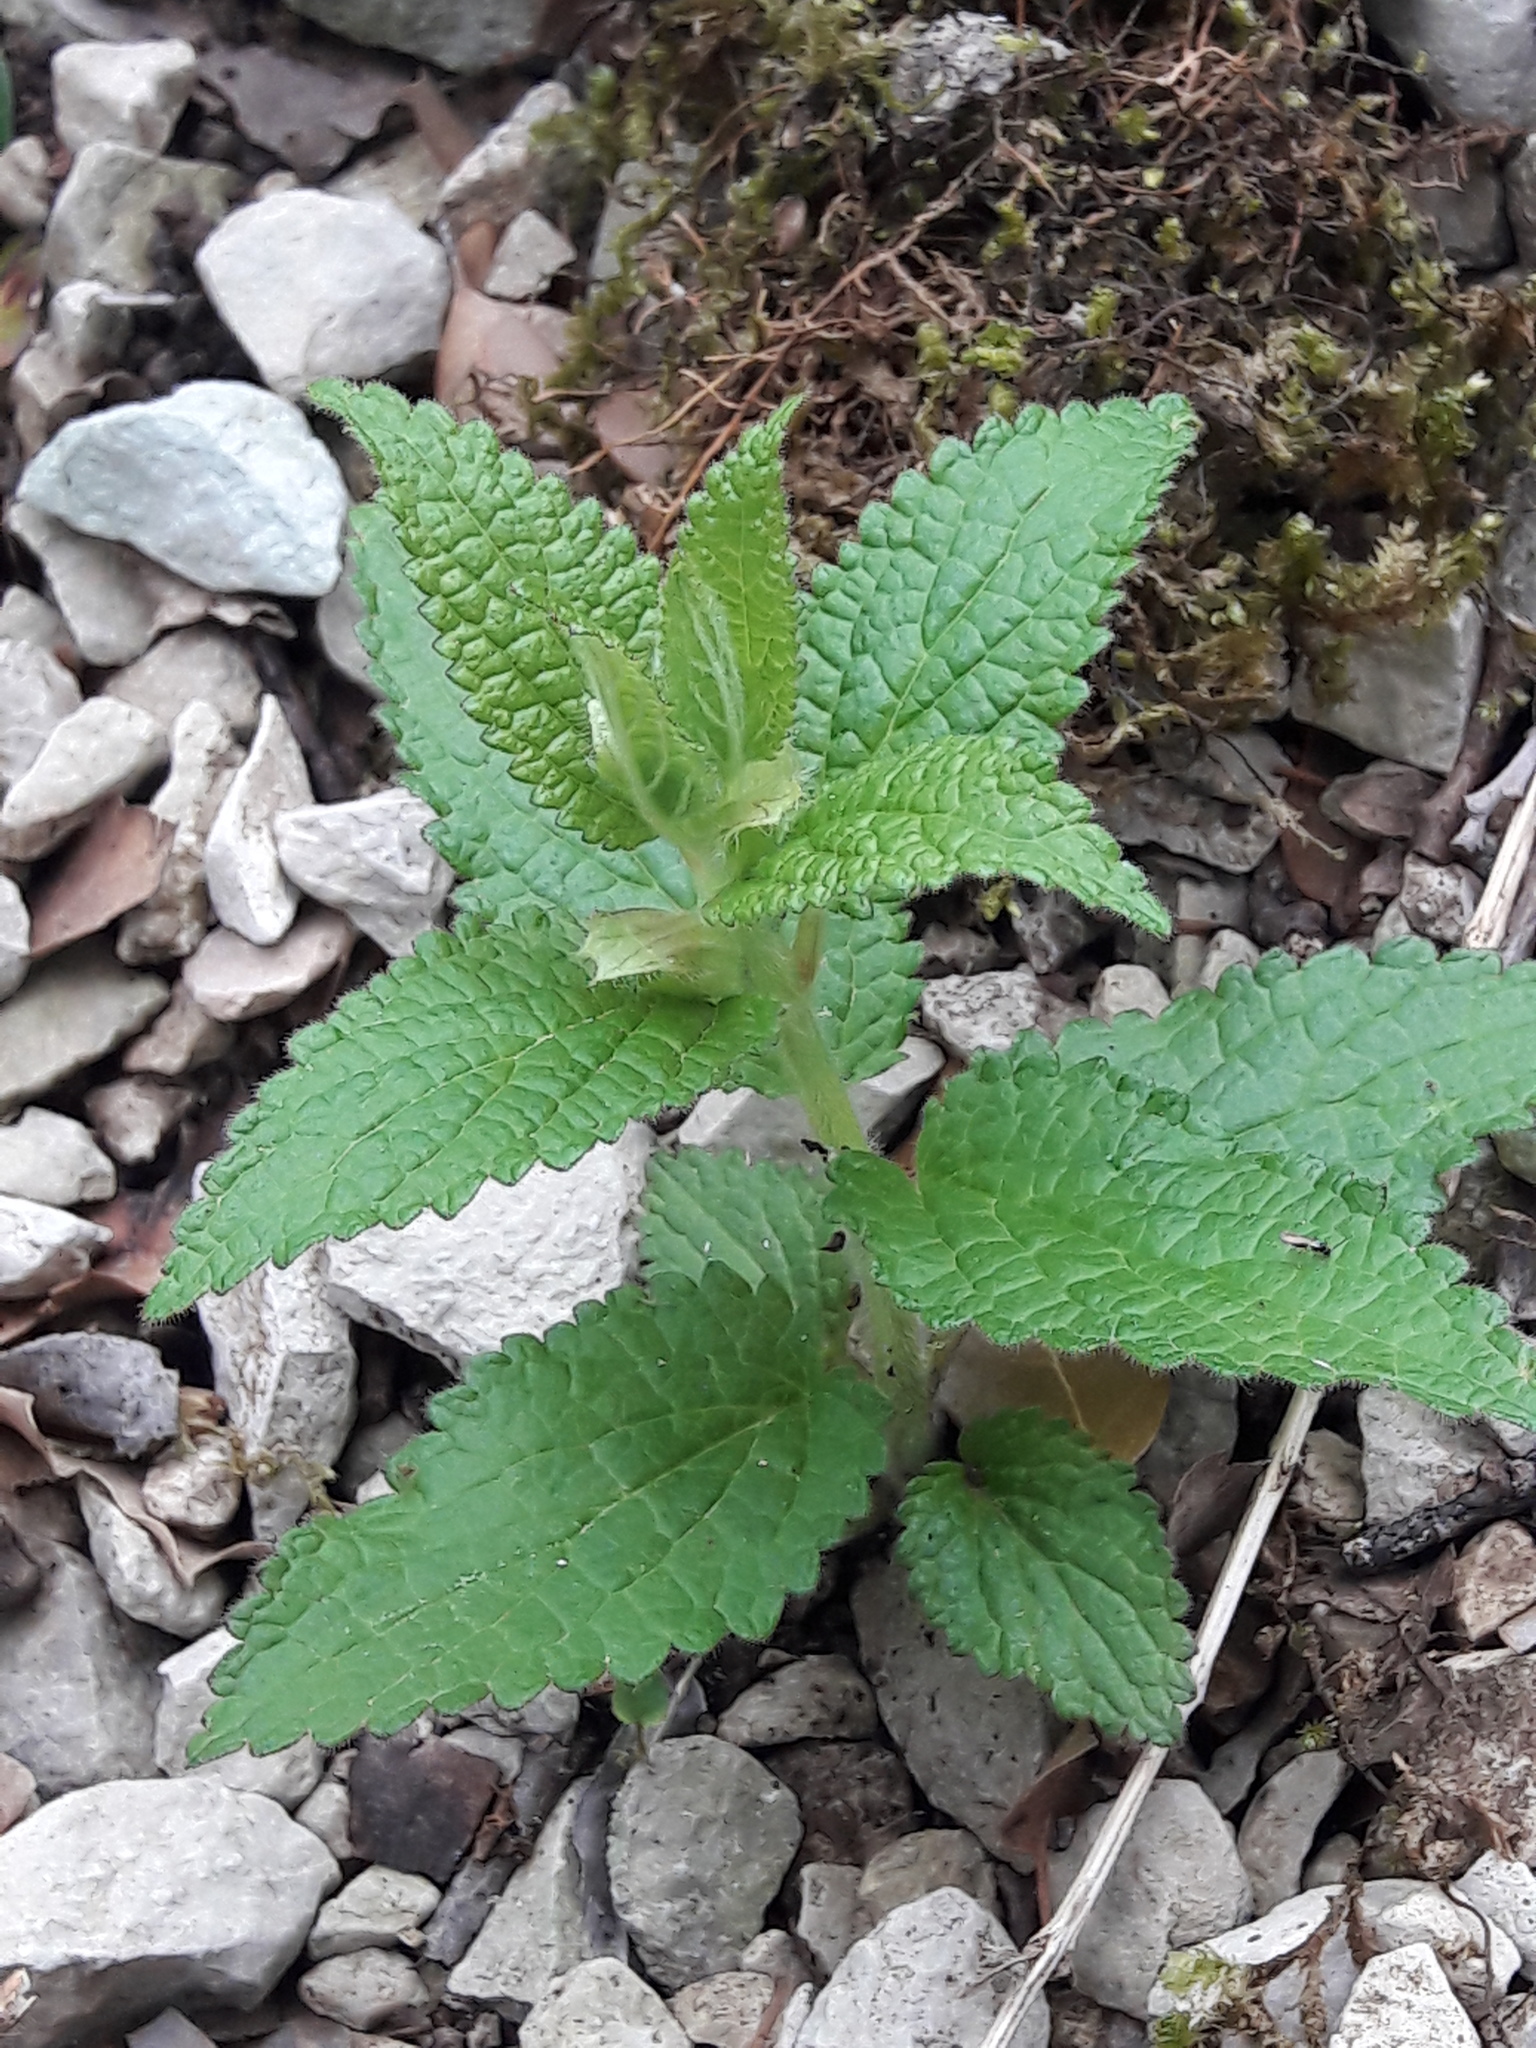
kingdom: Plantae
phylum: Tracheophyta
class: Magnoliopsida
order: Lamiales
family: Lamiaceae
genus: Melittis
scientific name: Melittis melissophyllum
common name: Bastard balm
